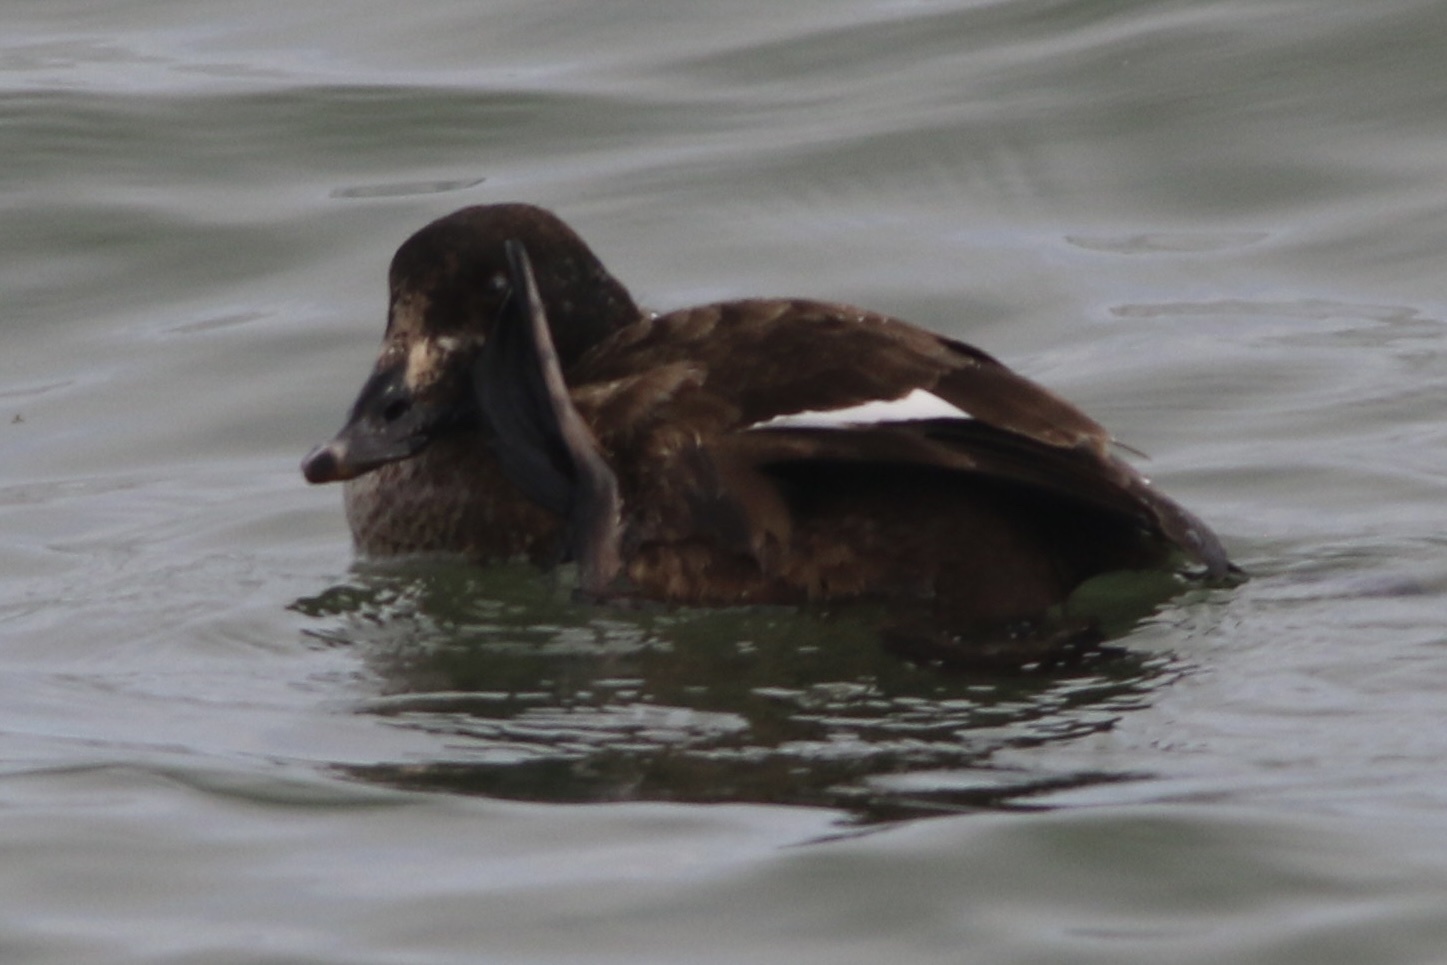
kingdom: Animalia
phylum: Chordata
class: Aves
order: Anseriformes
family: Anatidae
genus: Melanitta
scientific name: Melanitta deglandi
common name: White-winged scoter
